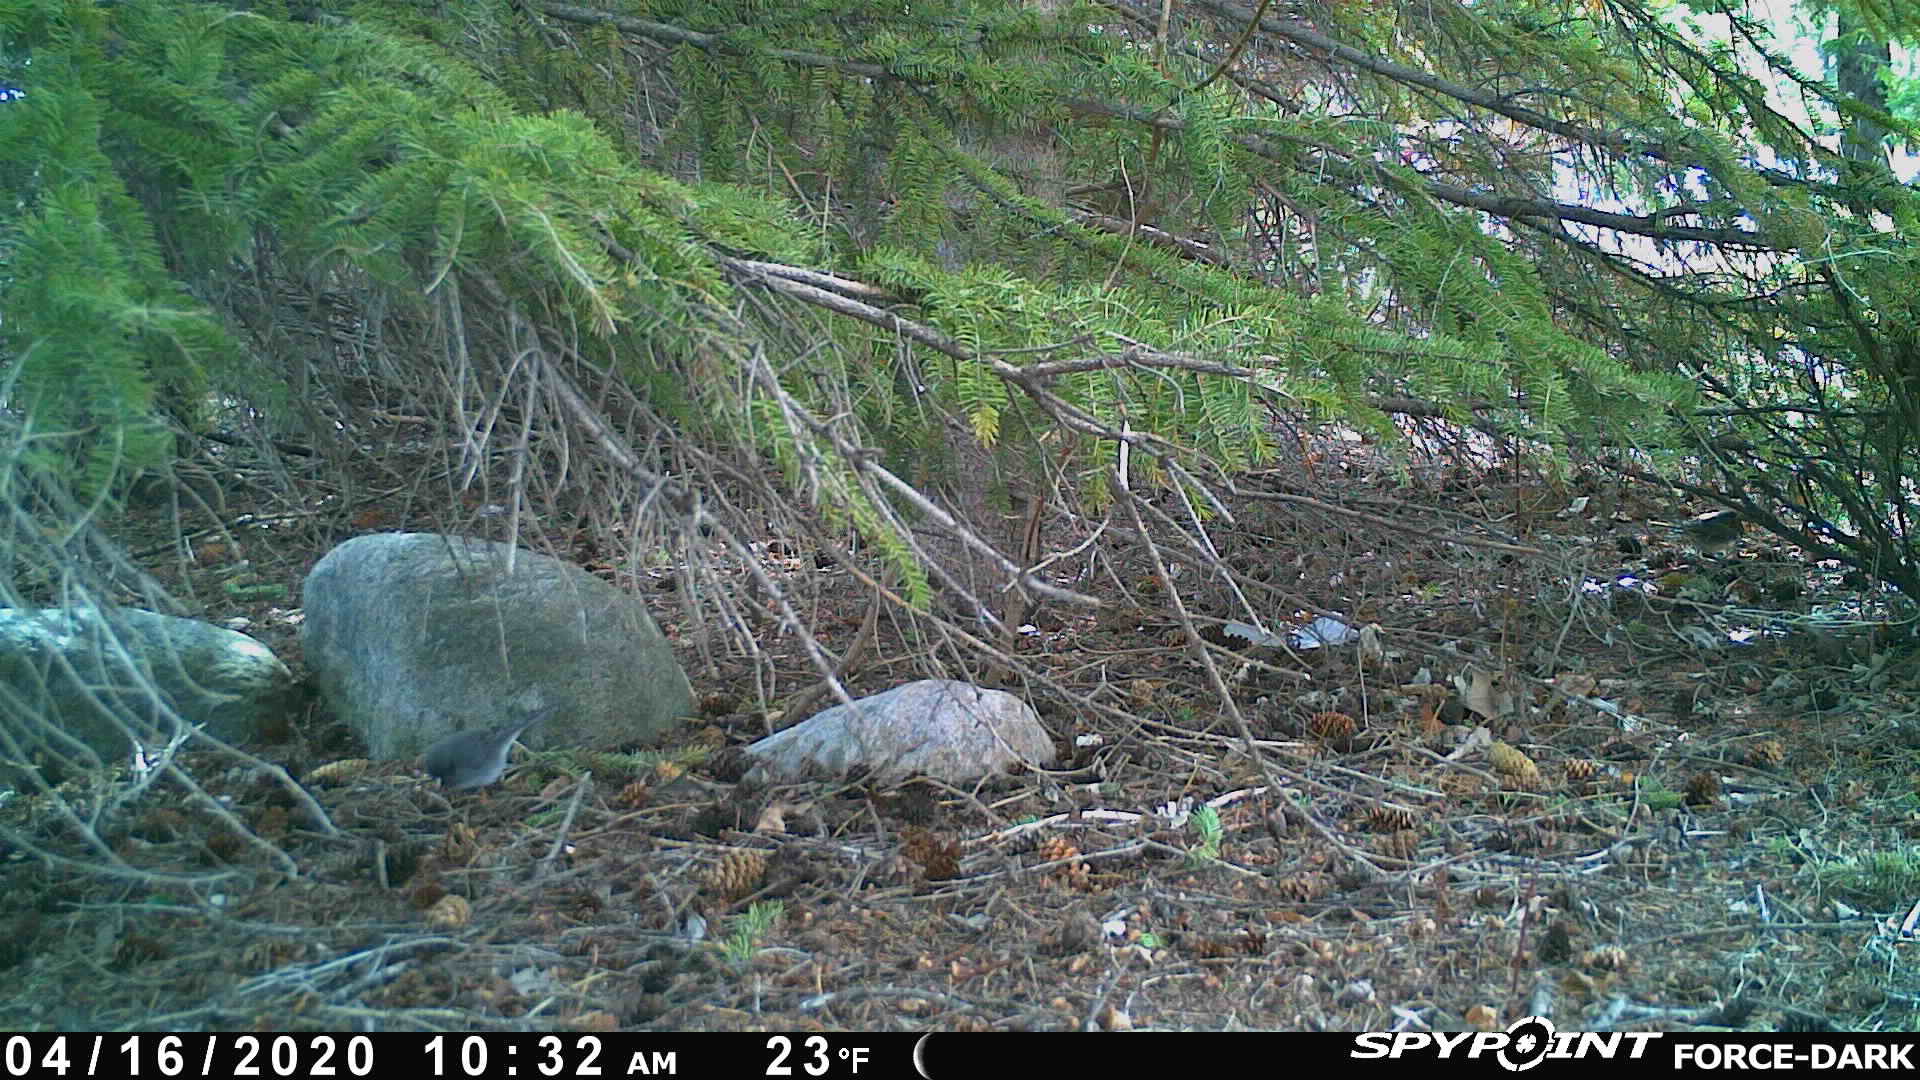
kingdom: Animalia
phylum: Chordata
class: Aves
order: Passeriformes
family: Passerellidae
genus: Junco
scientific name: Junco hyemalis
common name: Dark-eyed junco
